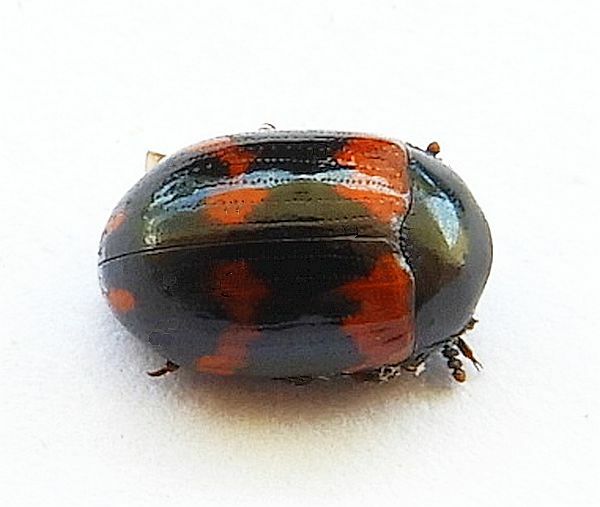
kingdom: Animalia
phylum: Arthropoda
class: Insecta
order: Coleoptera
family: Tenebrionidae
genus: Diaperis
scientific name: Diaperis rufipes
